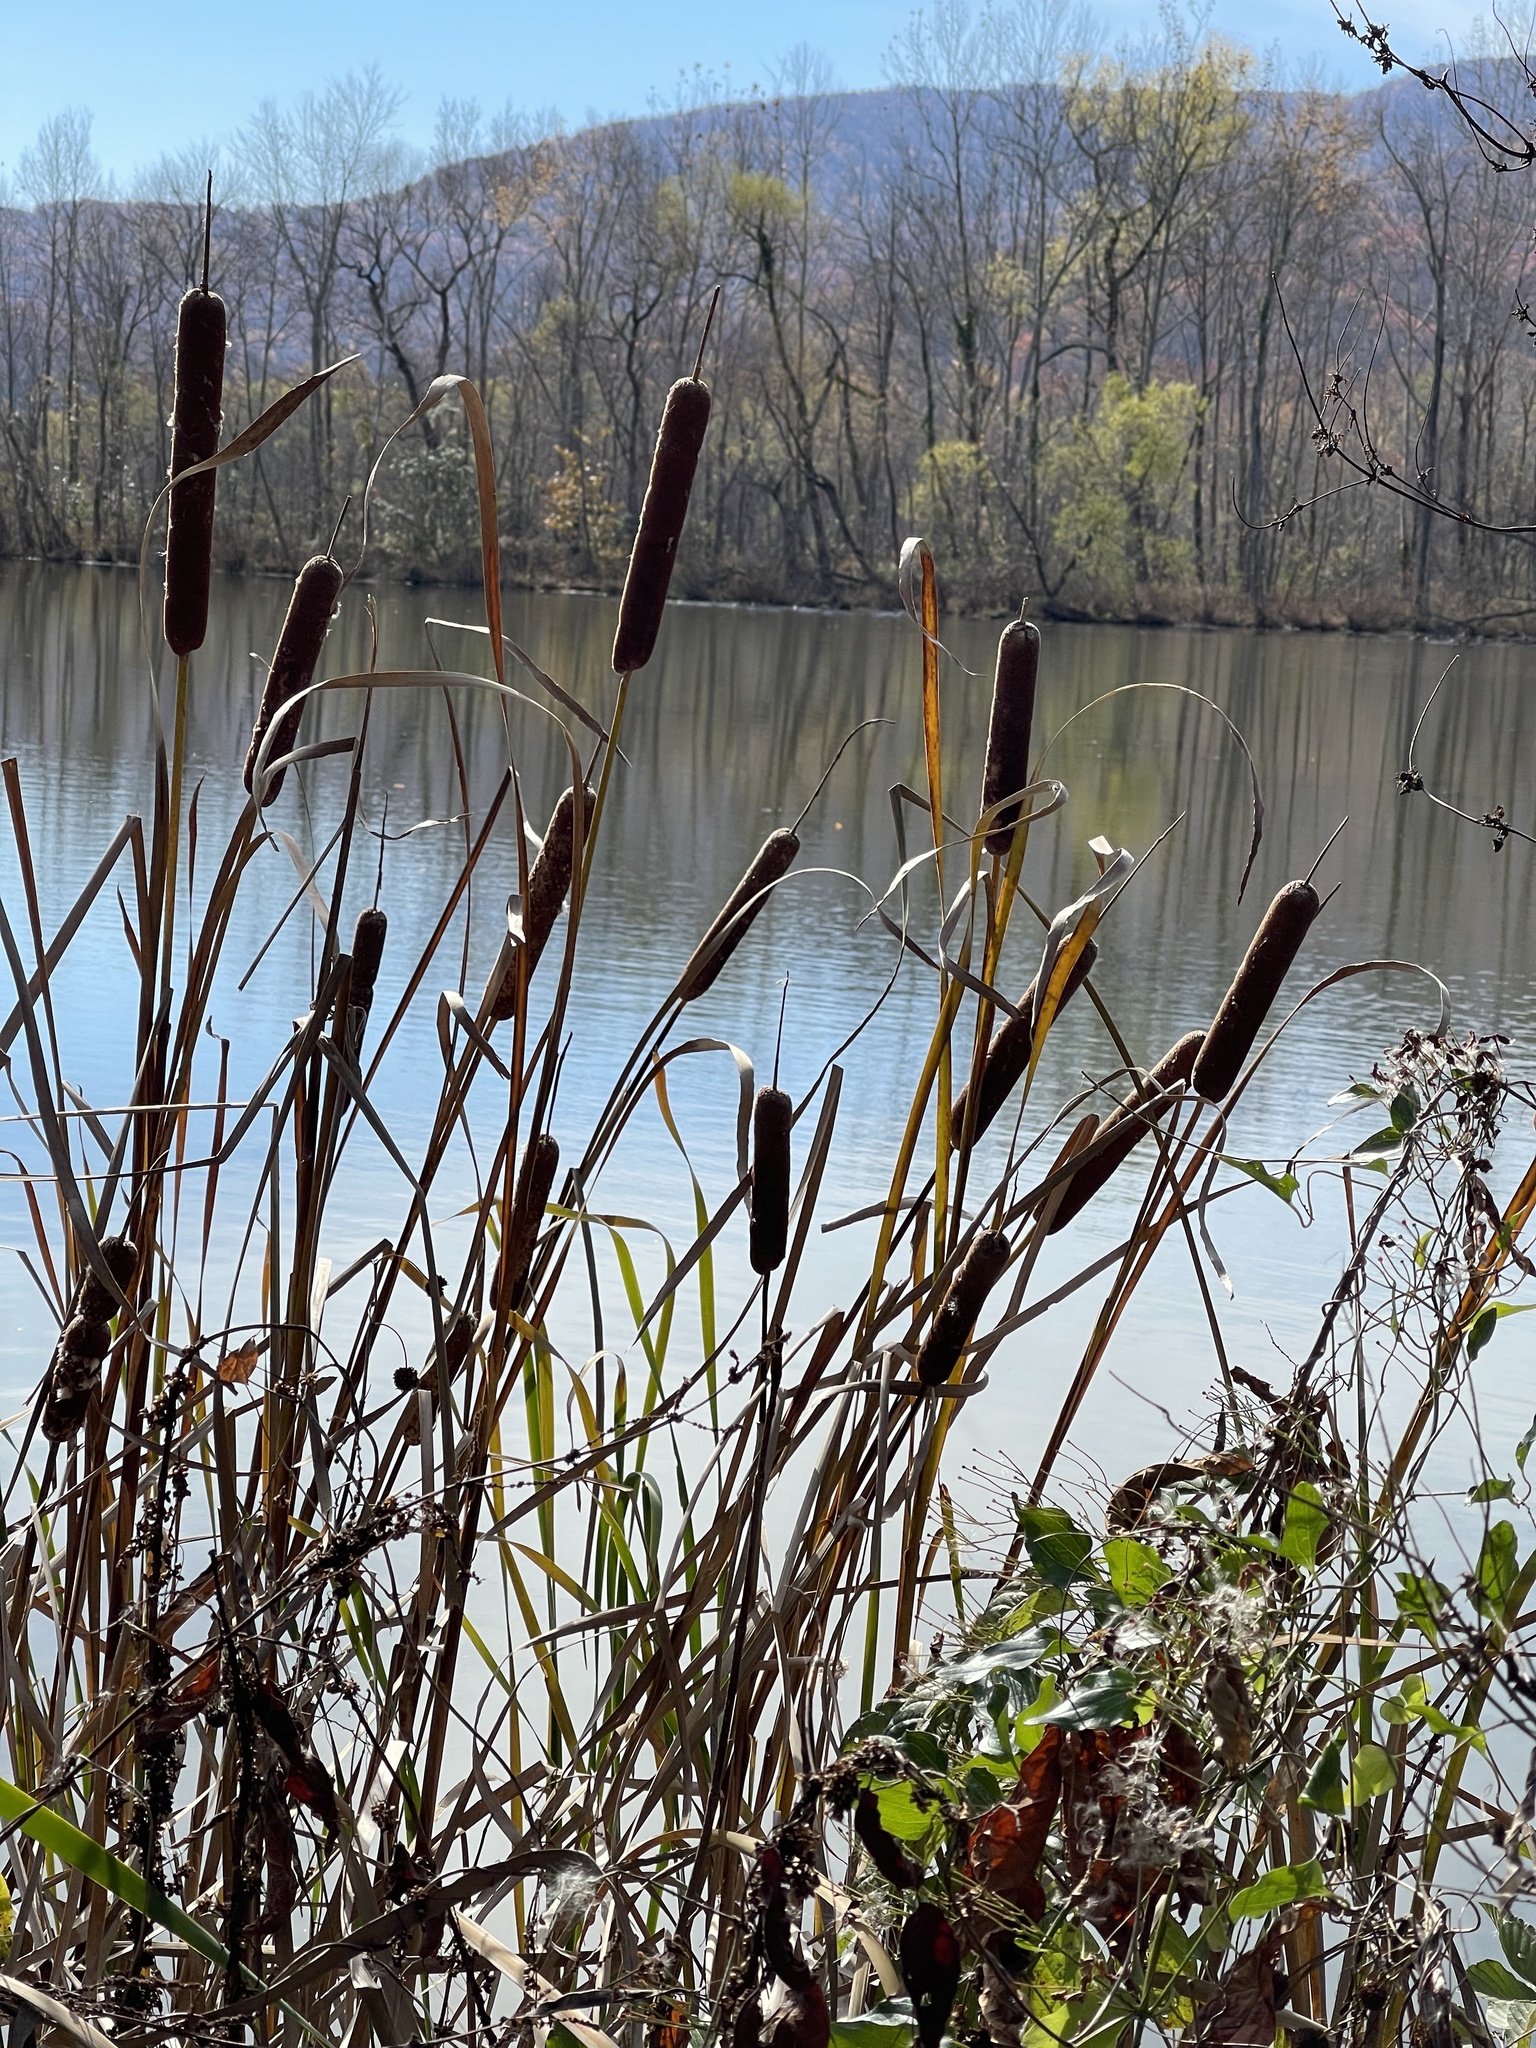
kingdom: Plantae
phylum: Tracheophyta
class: Liliopsida
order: Poales
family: Typhaceae
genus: Typha
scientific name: Typha latifolia
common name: Broadleaf cattail
